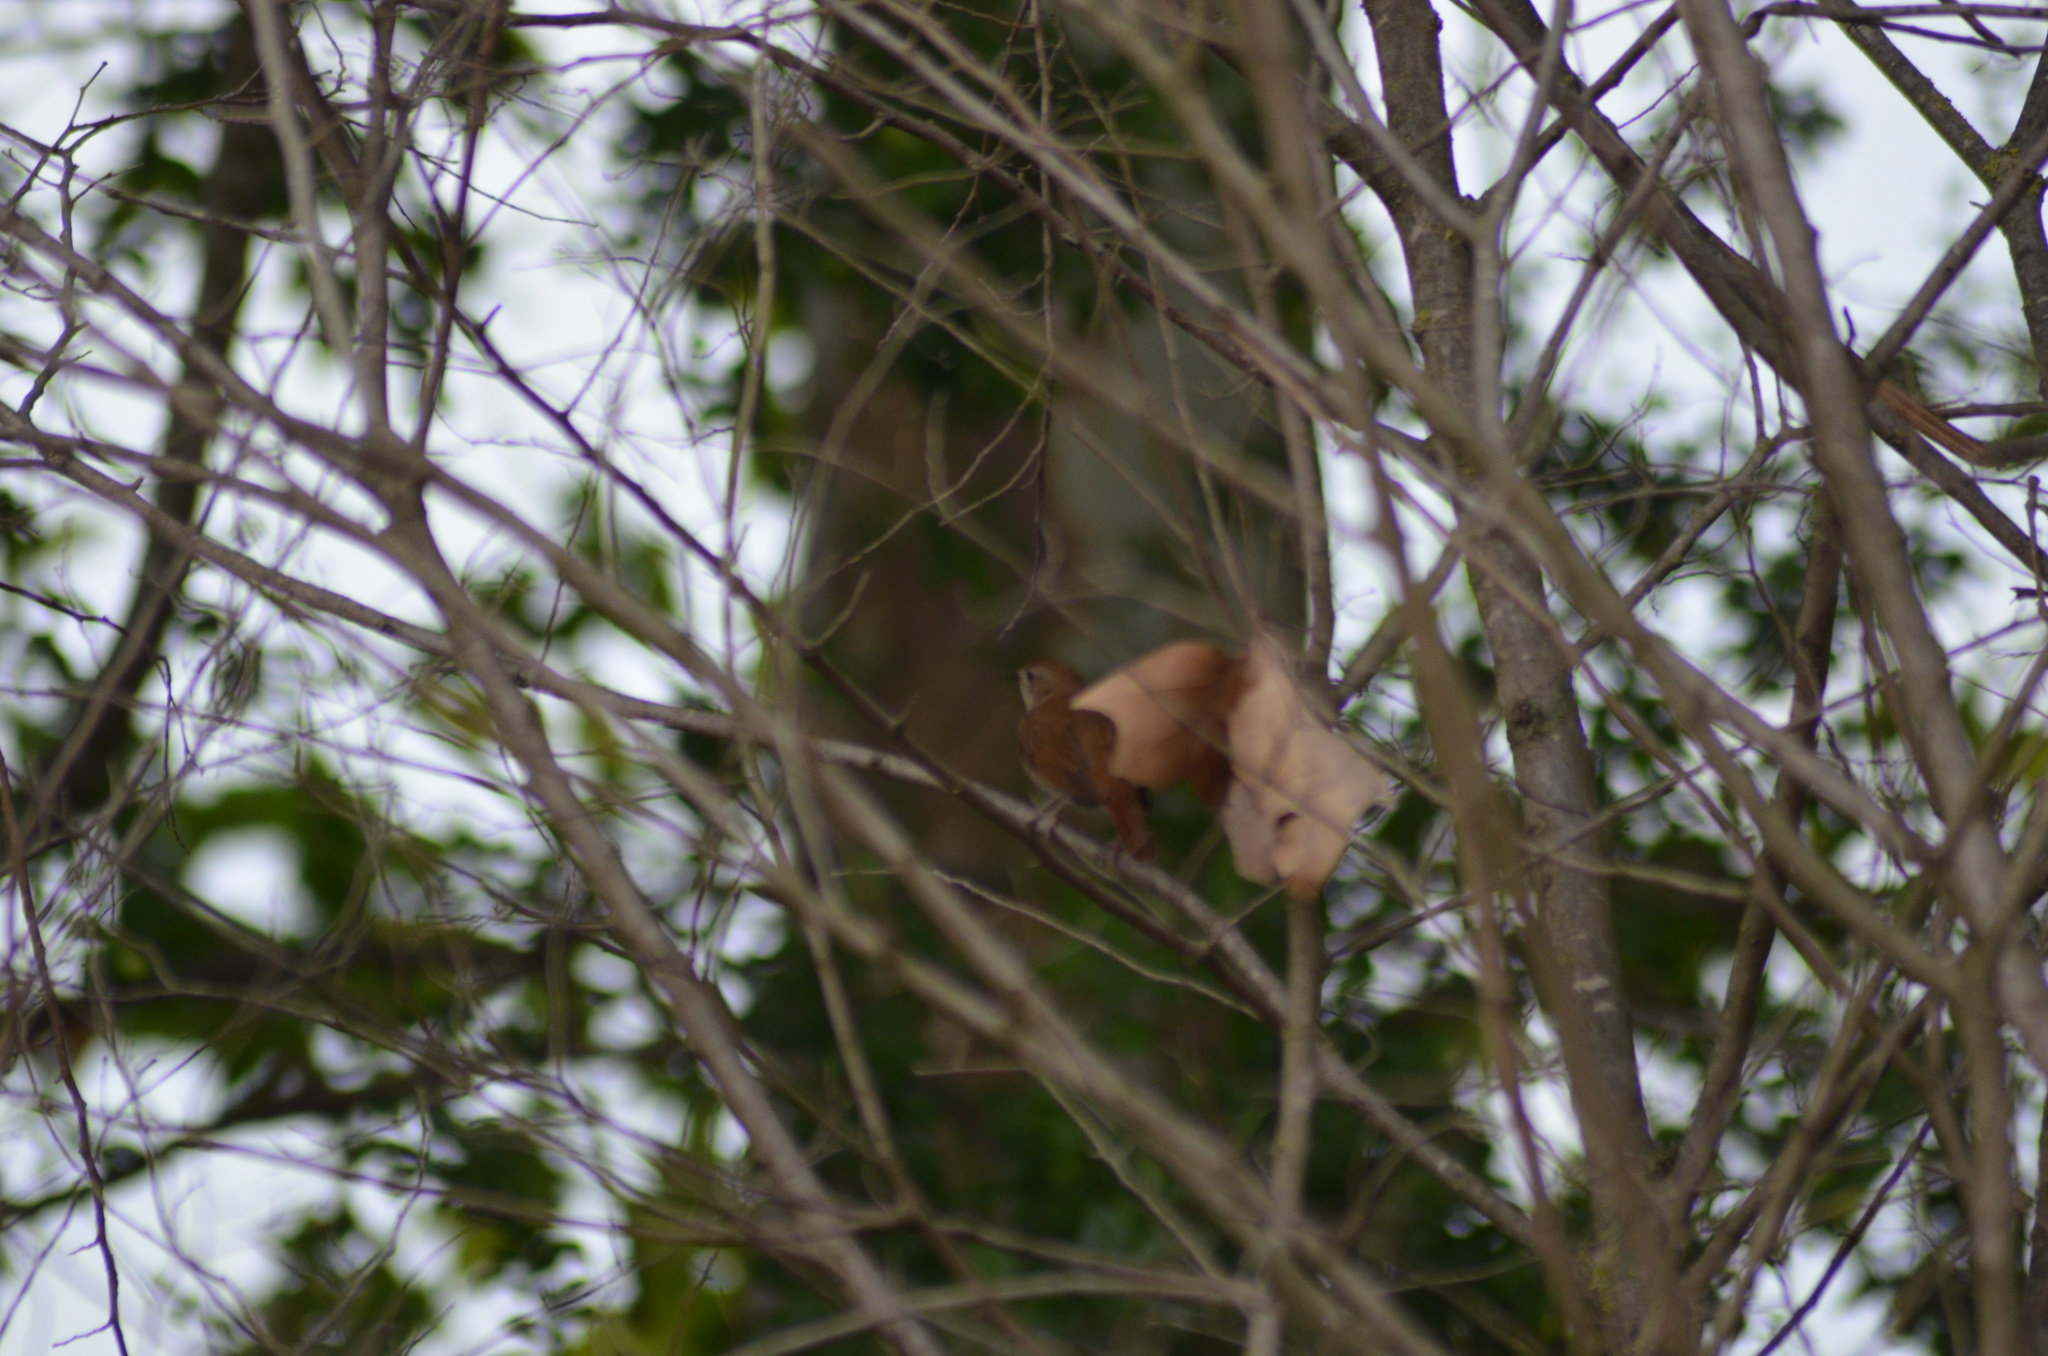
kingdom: Animalia
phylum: Chordata
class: Aves
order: Passeriformes
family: Muscicapidae
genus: Luscinia
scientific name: Luscinia megarhynchos
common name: Common nightingale
